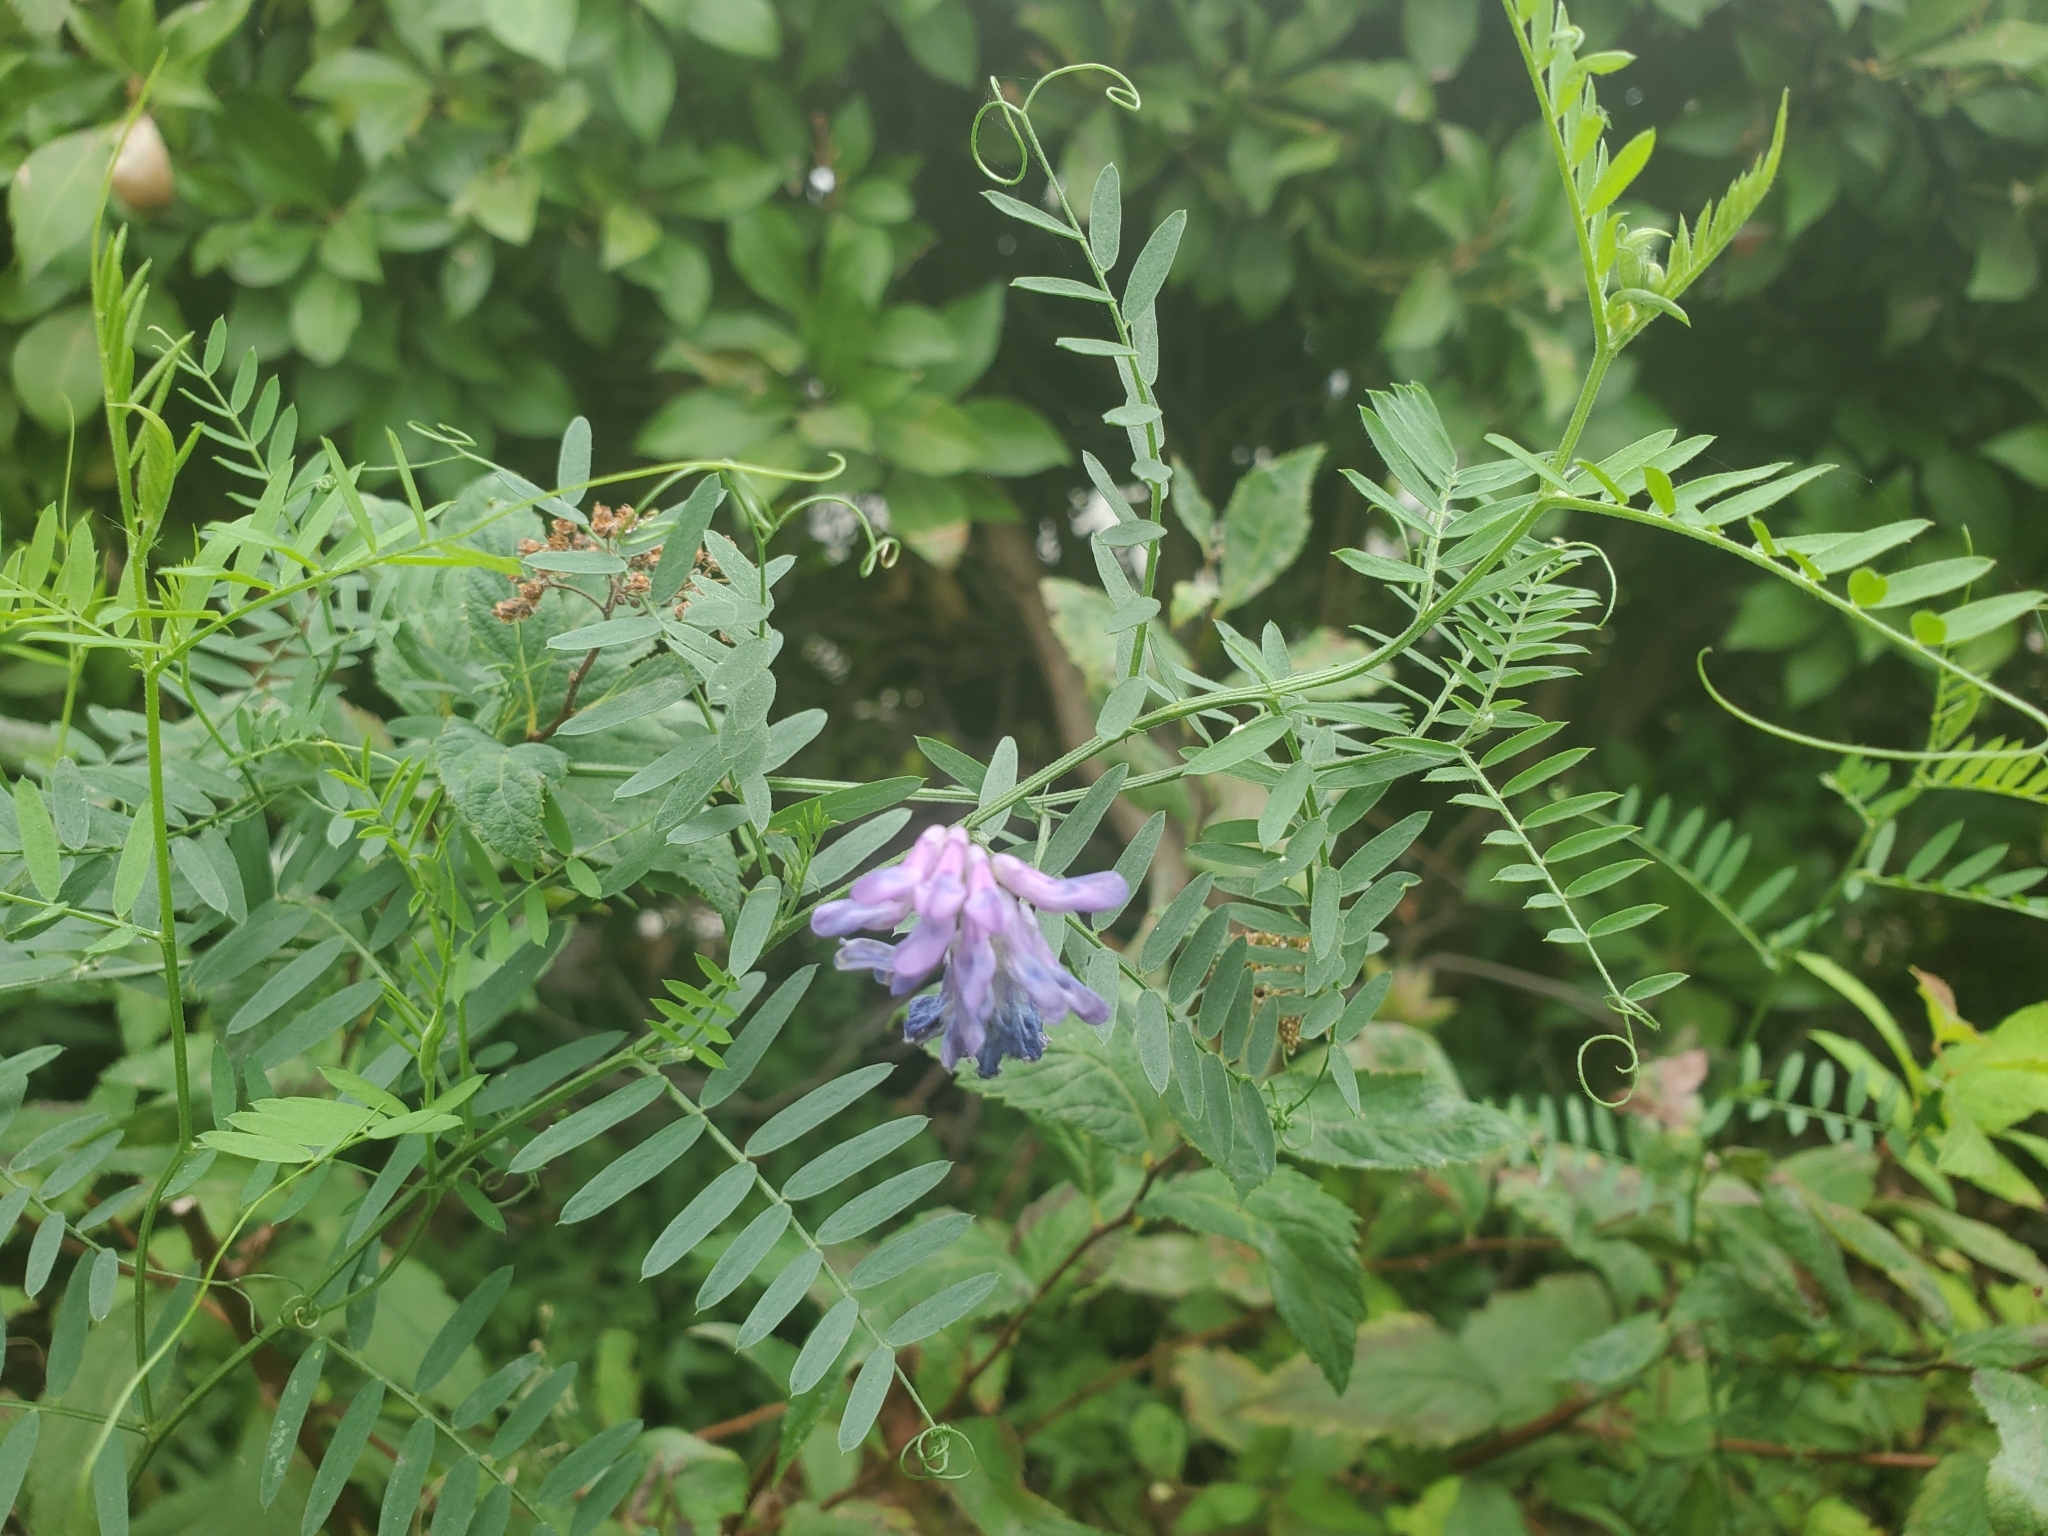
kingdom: Plantae
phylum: Tracheophyta
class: Magnoliopsida
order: Fabales
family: Fabaceae
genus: Vicia
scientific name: Vicia cracca
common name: Bird vetch
